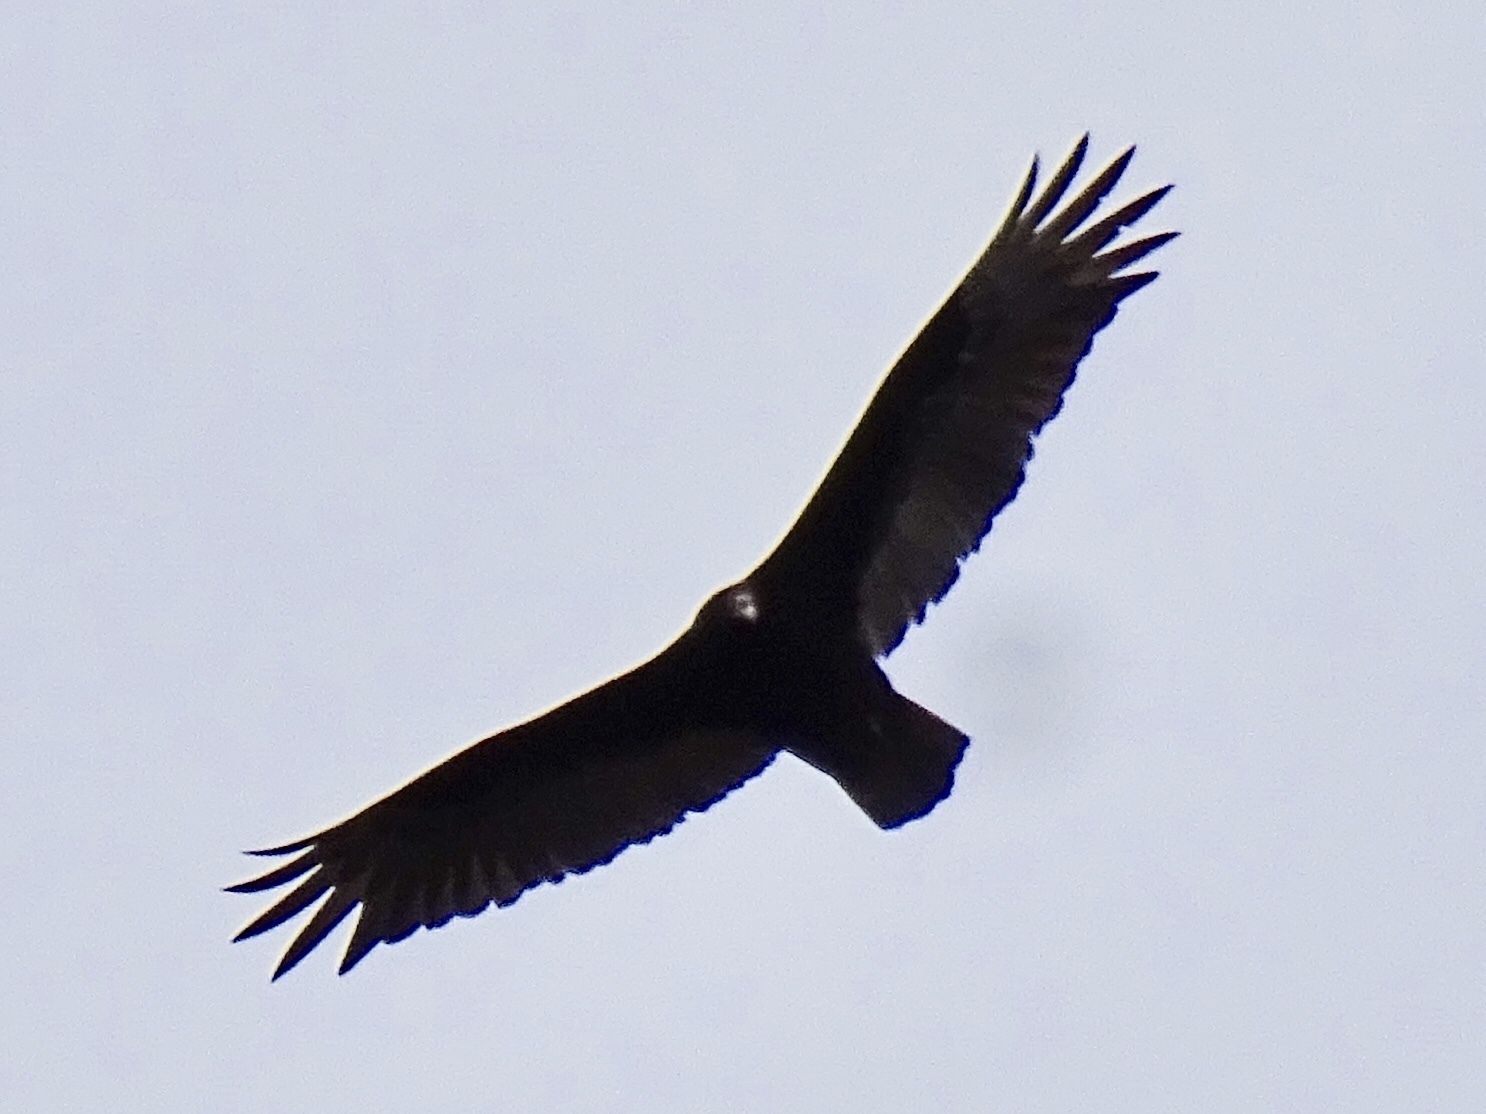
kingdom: Animalia
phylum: Chordata
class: Aves
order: Accipitriformes
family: Cathartidae
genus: Cathartes
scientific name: Cathartes aura
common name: Turkey vulture
